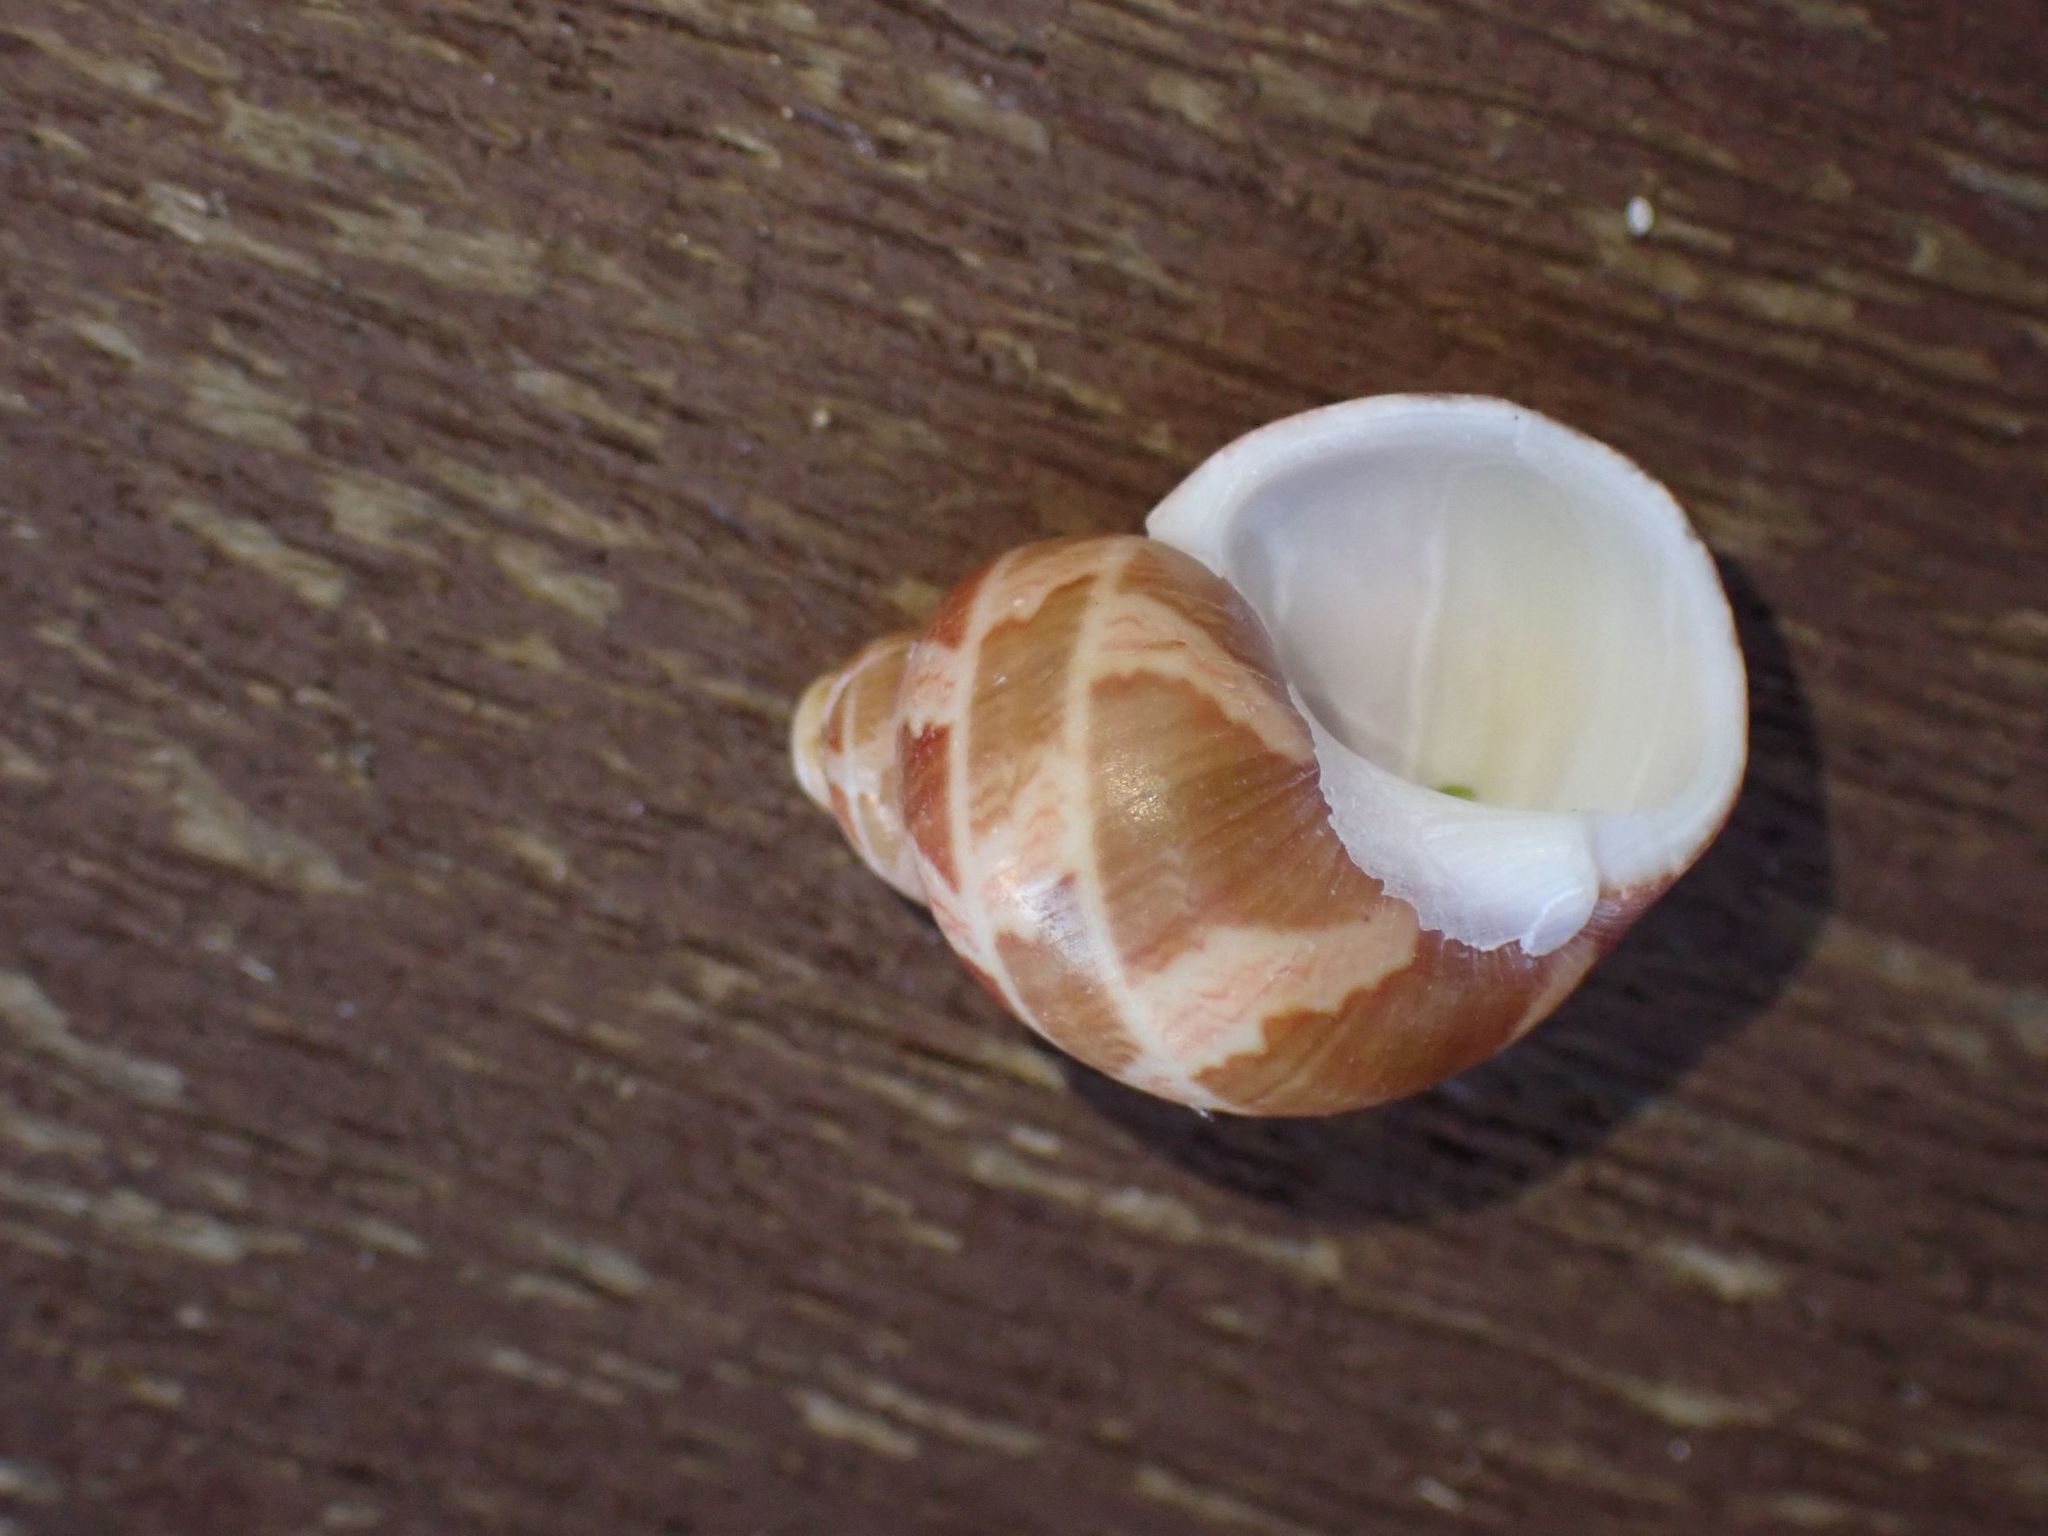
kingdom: Animalia
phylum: Mollusca
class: Gastropoda
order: Trochida
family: Phasianellidae
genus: Phasianella
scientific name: Phasianella ventricosa
